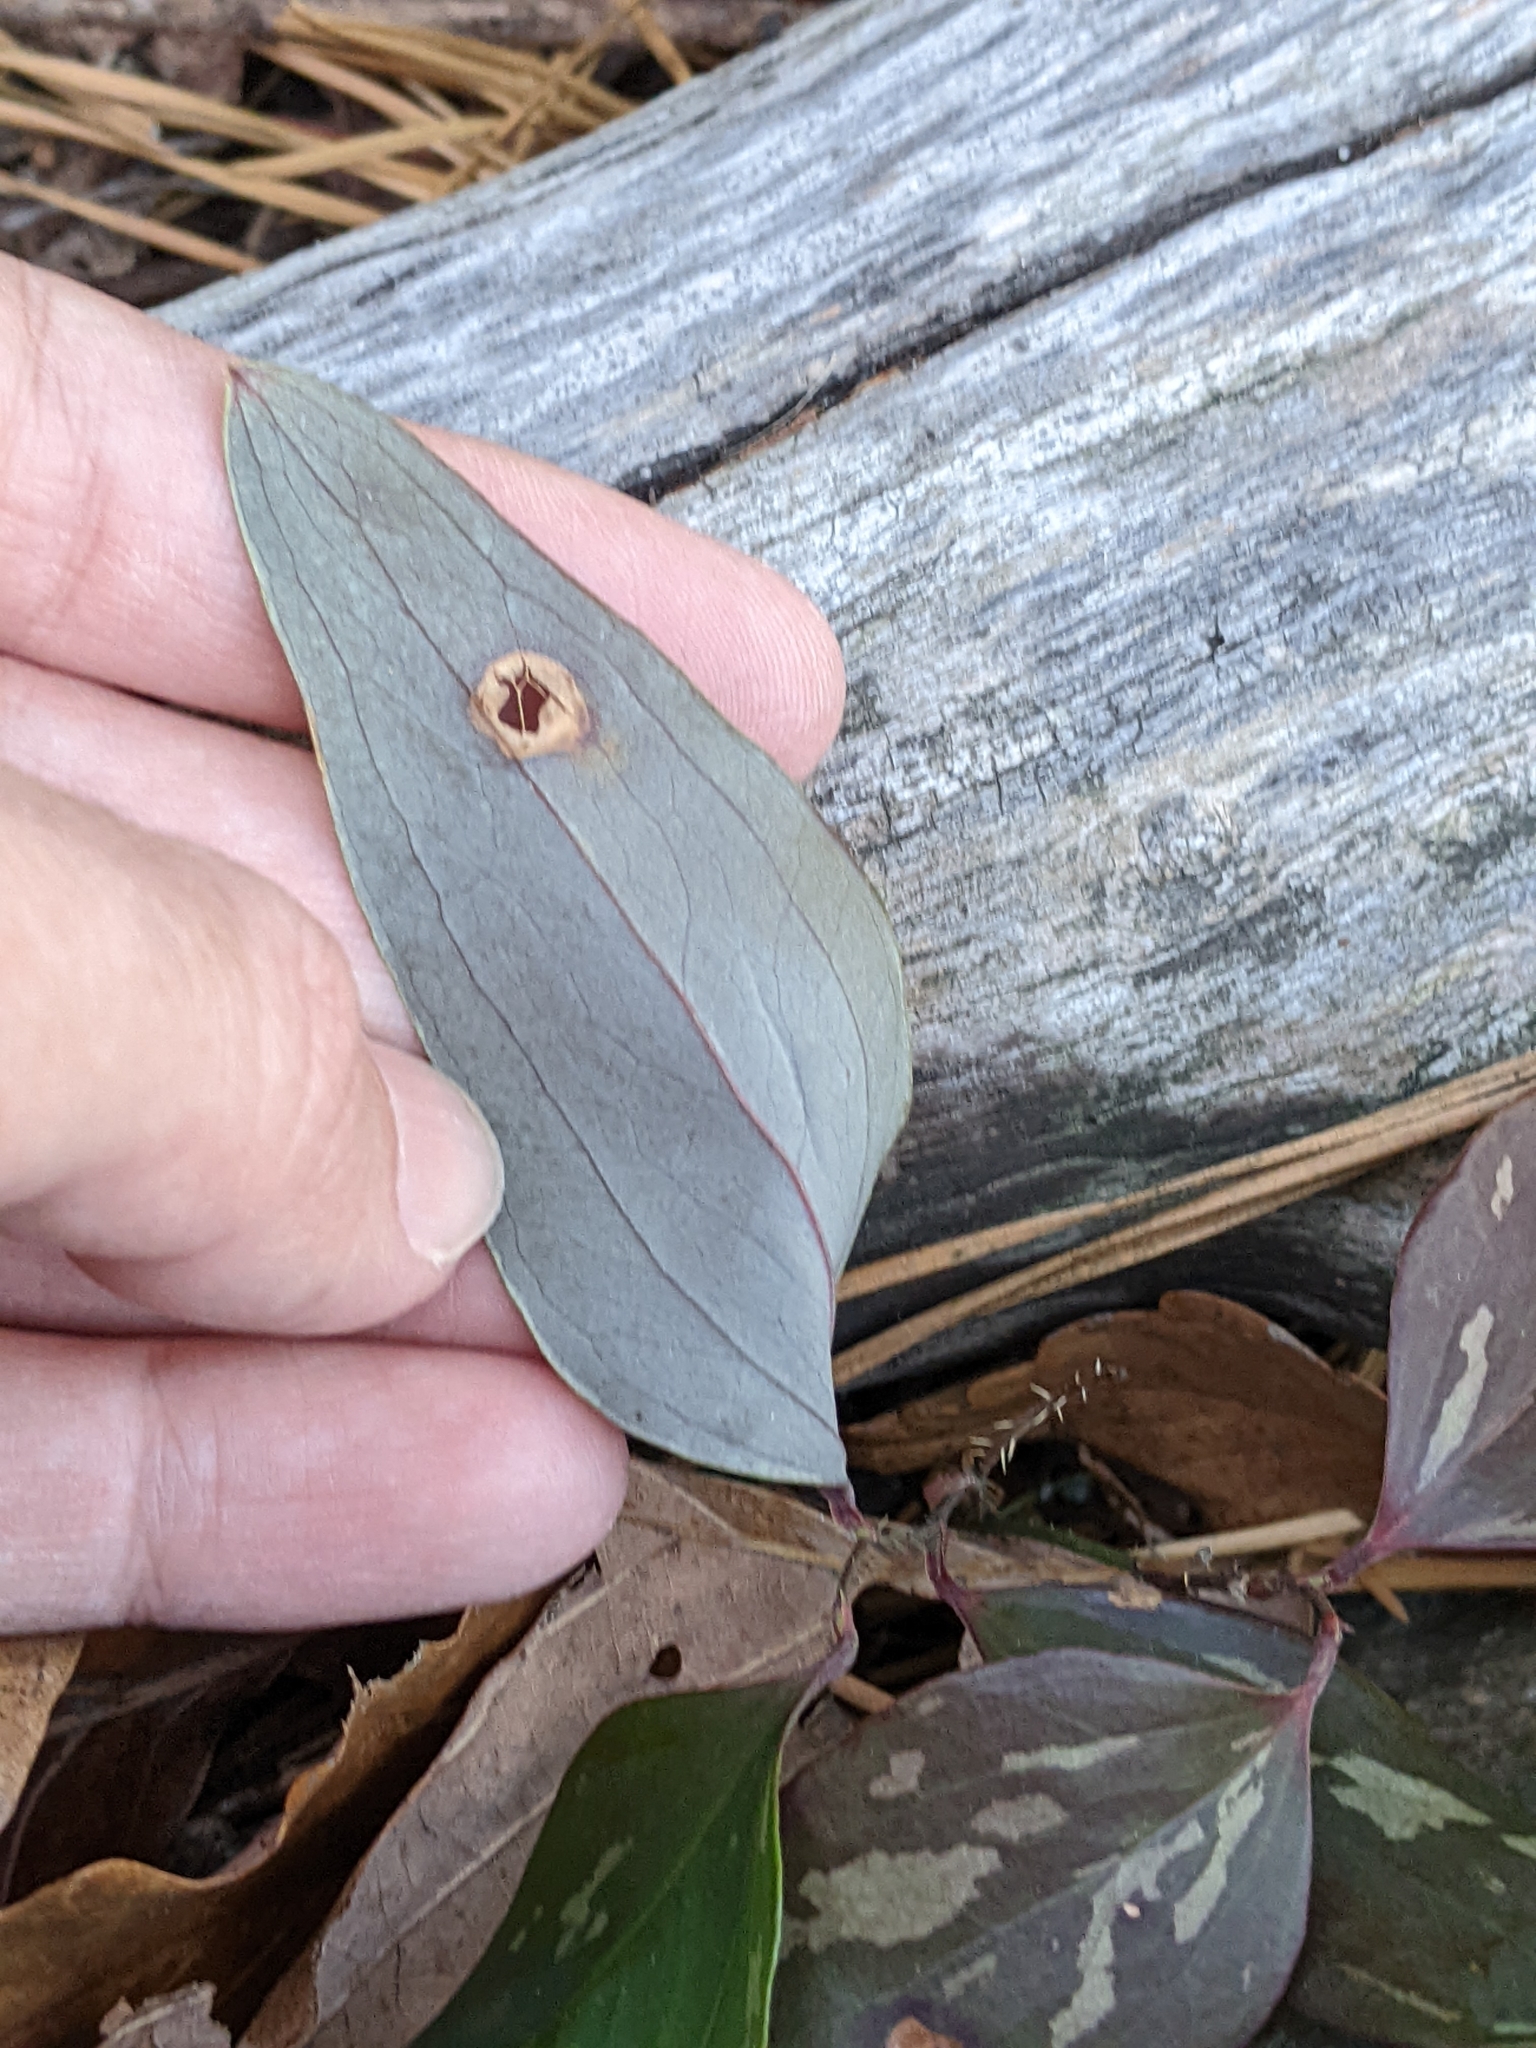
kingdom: Plantae
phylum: Tracheophyta
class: Liliopsida
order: Liliales
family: Smilacaceae
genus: Smilax
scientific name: Smilax glauca
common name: Cat greenbrier
